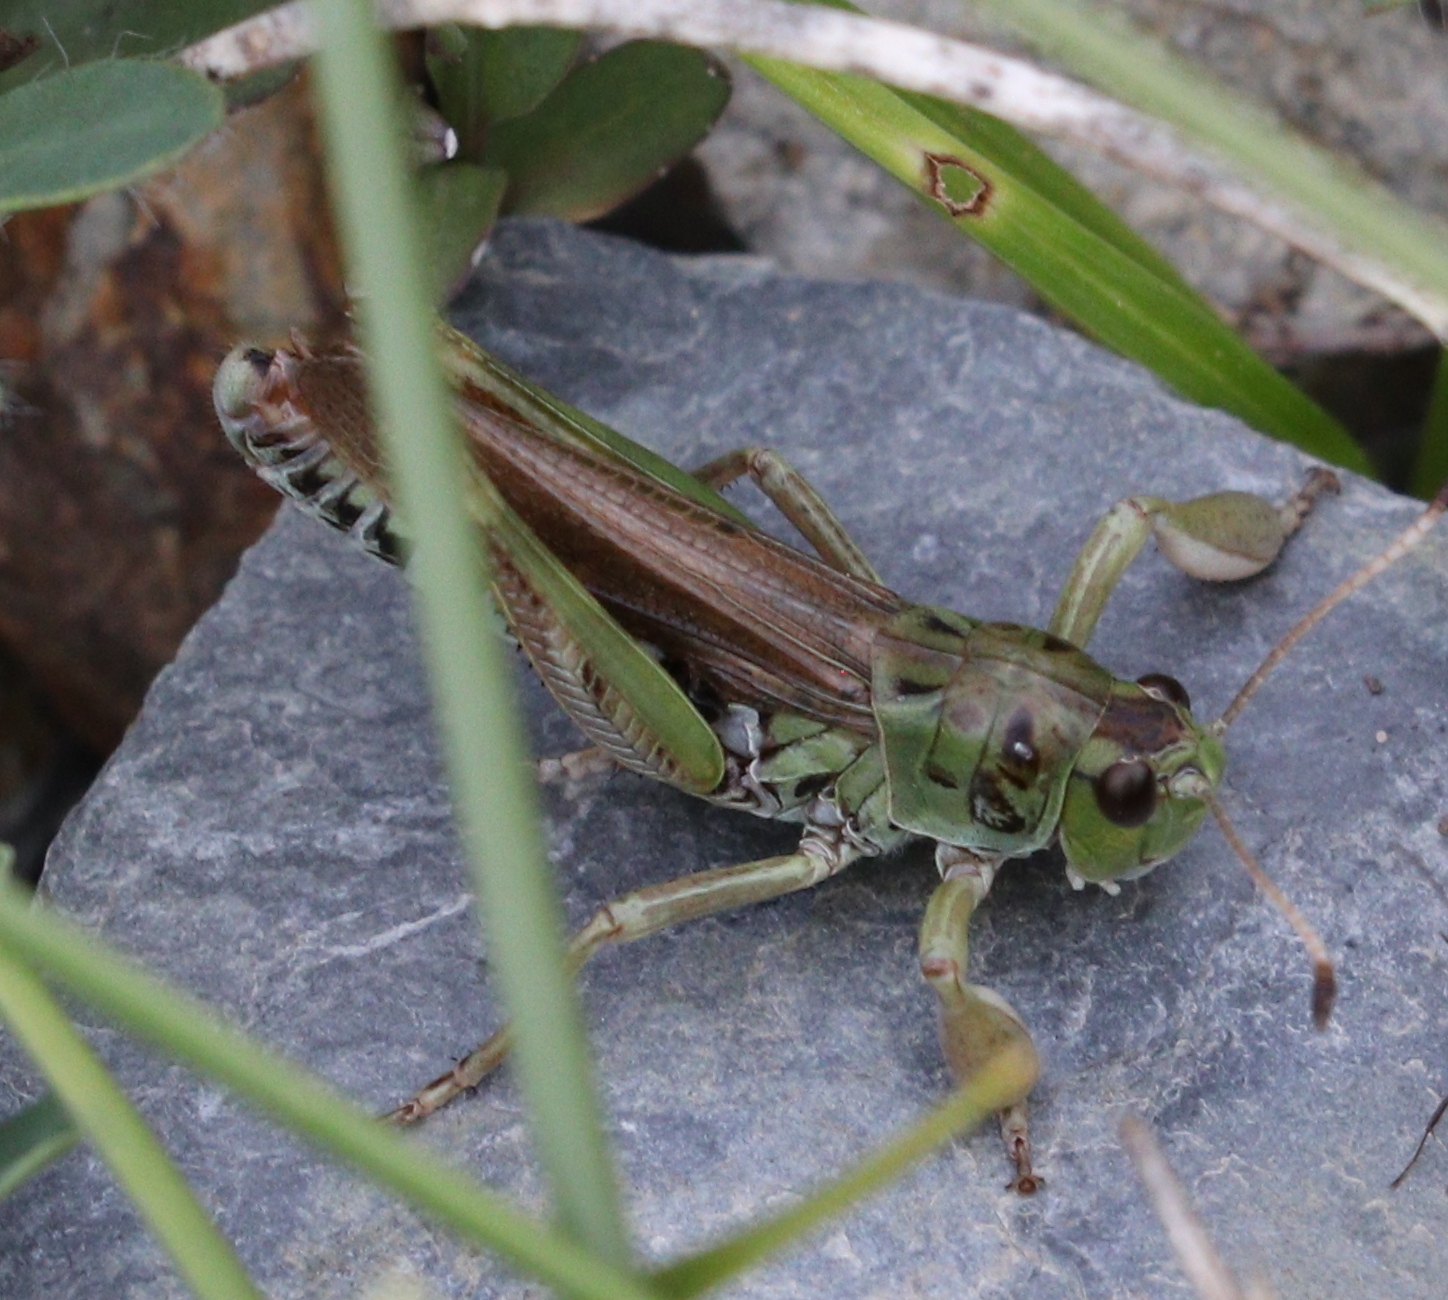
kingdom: Animalia
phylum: Arthropoda
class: Insecta
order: Orthoptera
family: Acrididae
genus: Gomphocerus
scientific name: Gomphocerus sibiricus
